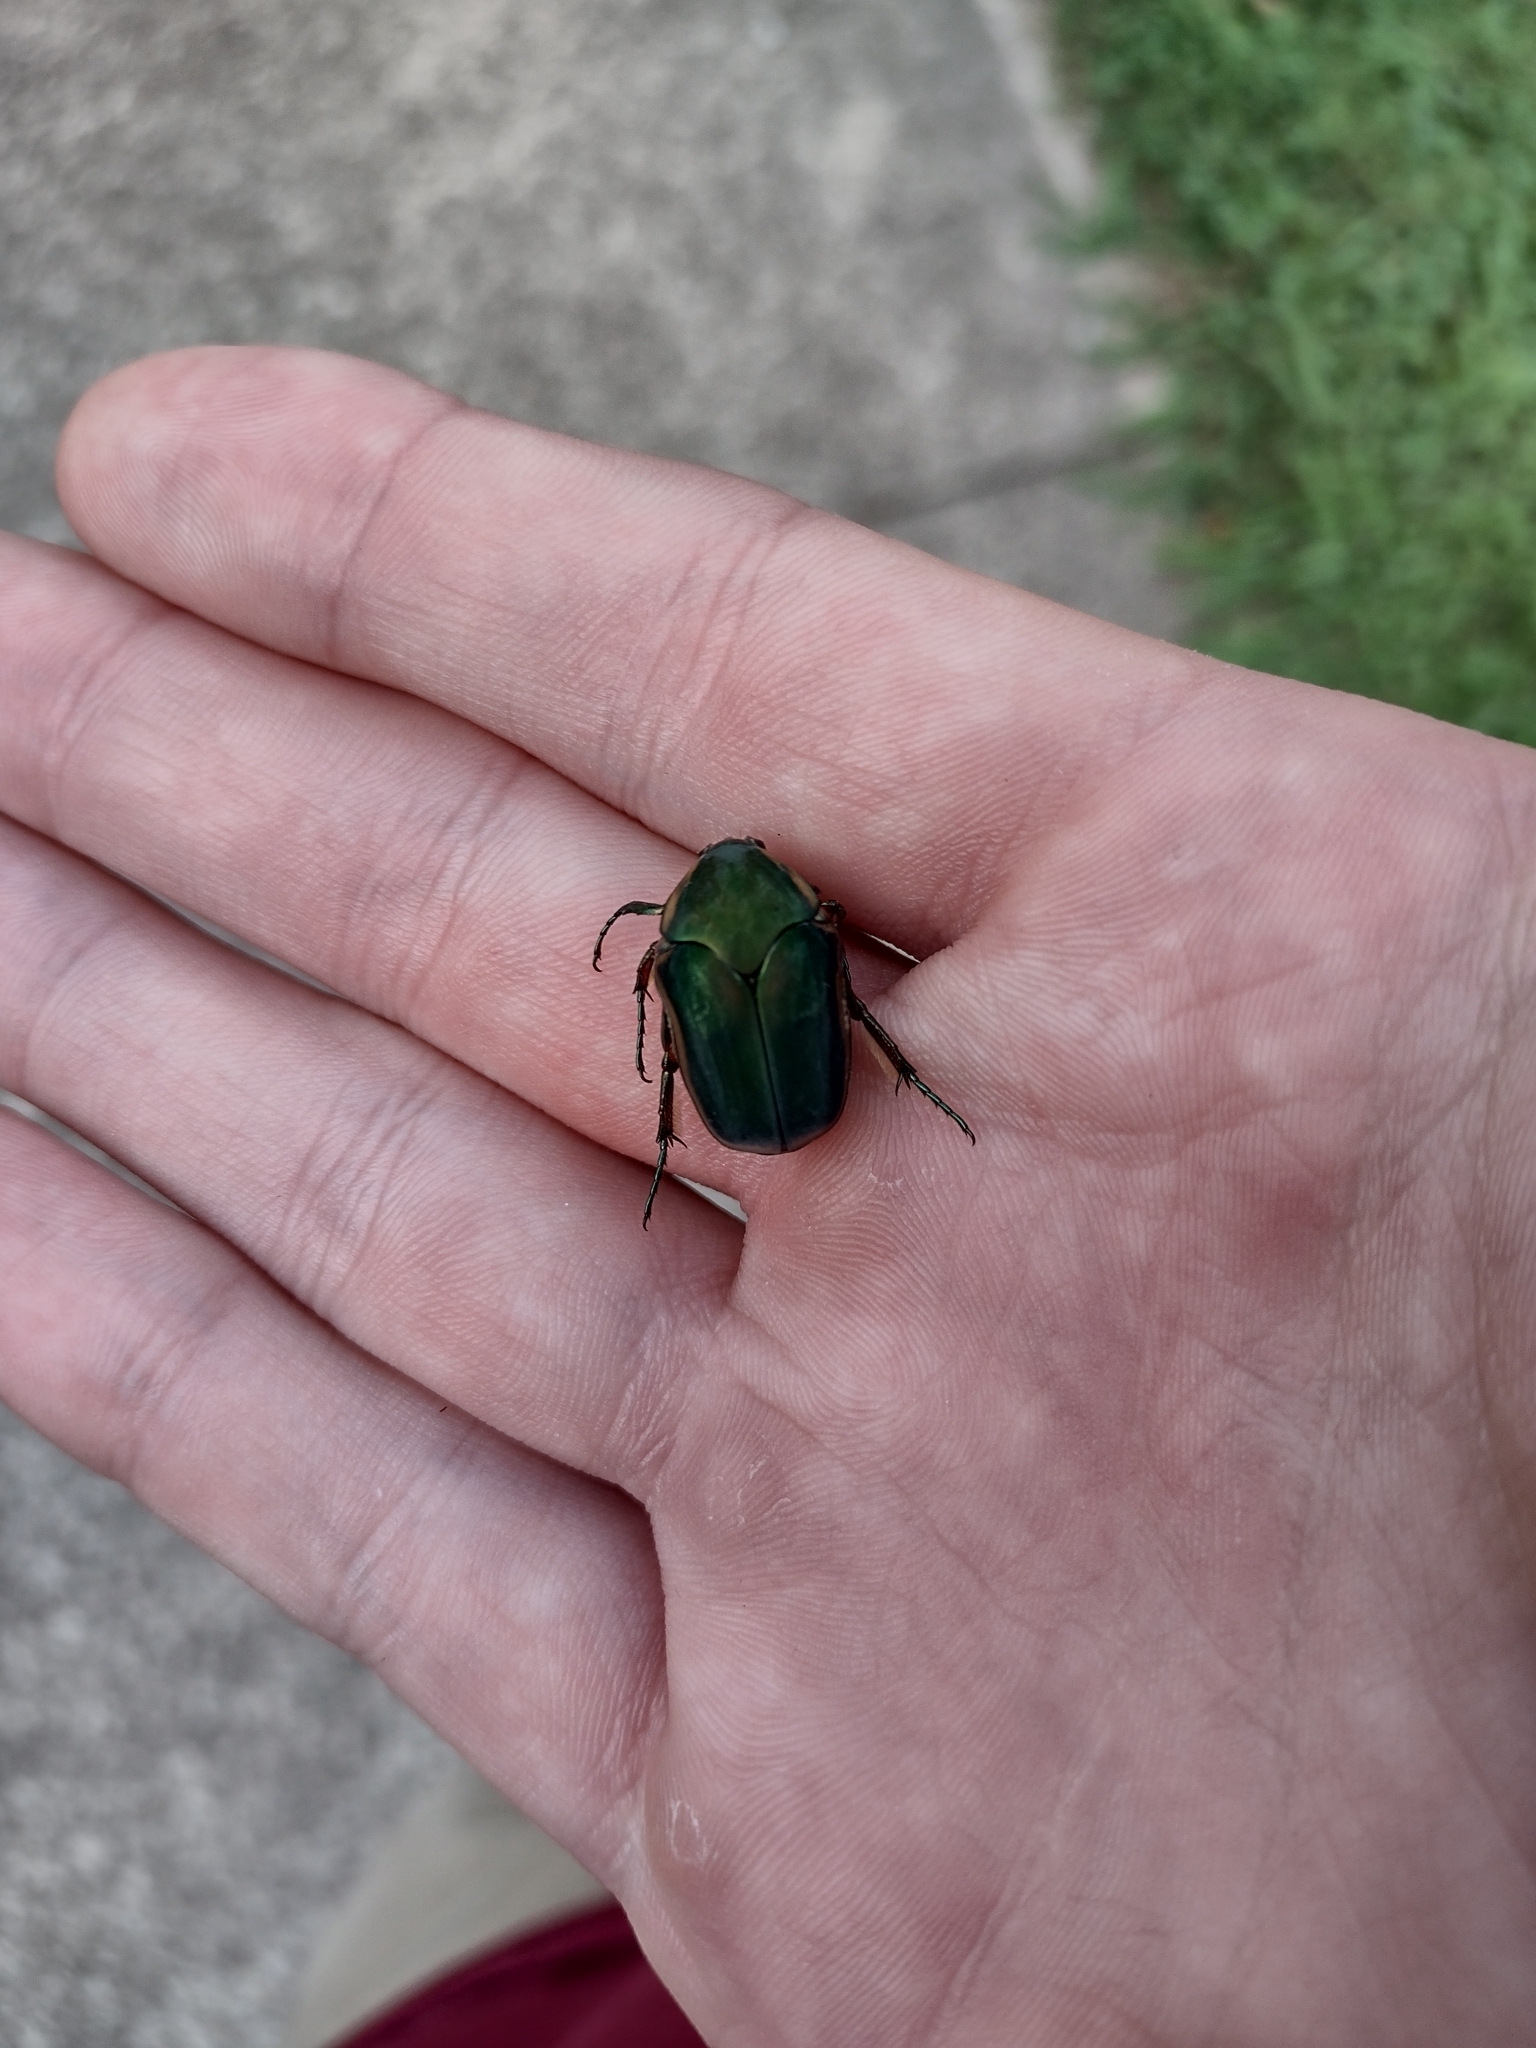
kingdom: Animalia
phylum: Arthropoda
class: Insecta
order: Coleoptera
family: Scarabaeidae
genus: Cotinis
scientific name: Cotinis nitida
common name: Common green june beetle
